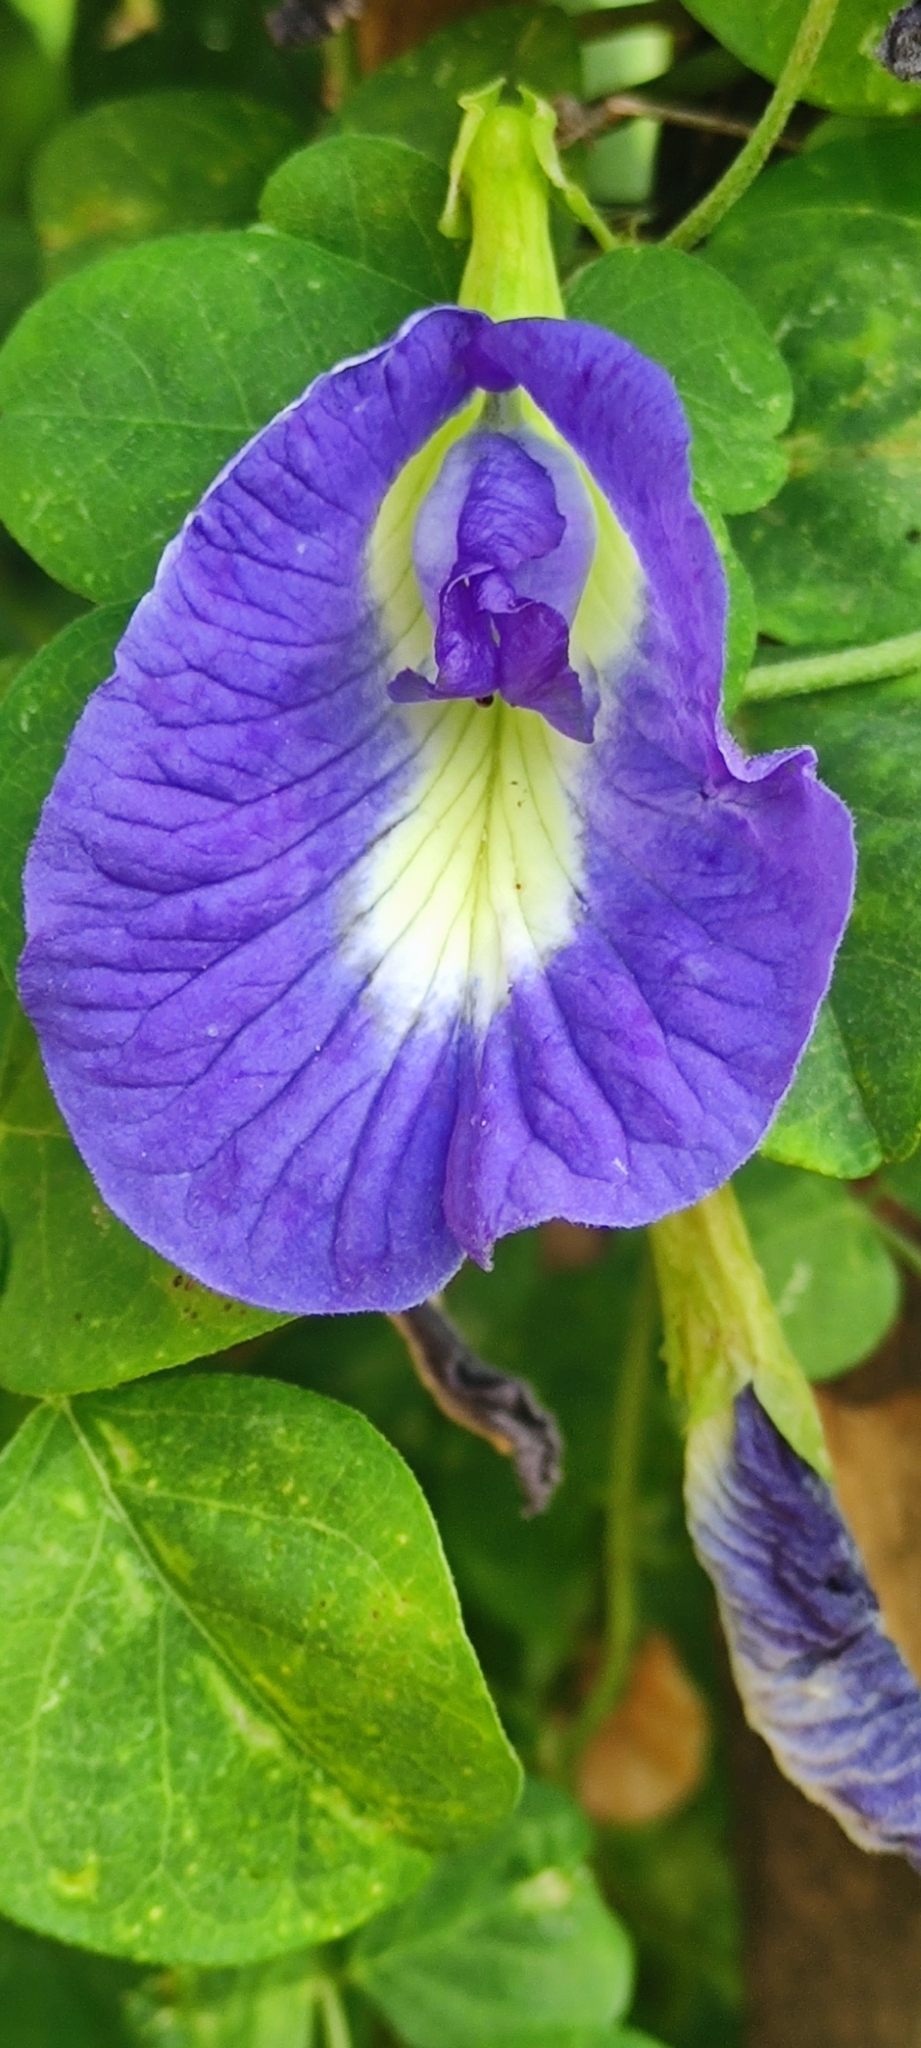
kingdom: Plantae
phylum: Tracheophyta
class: Magnoliopsida
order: Fabales
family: Fabaceae
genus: Clitoria
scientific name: Clitoria ternatea
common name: Asian pigeonwings
